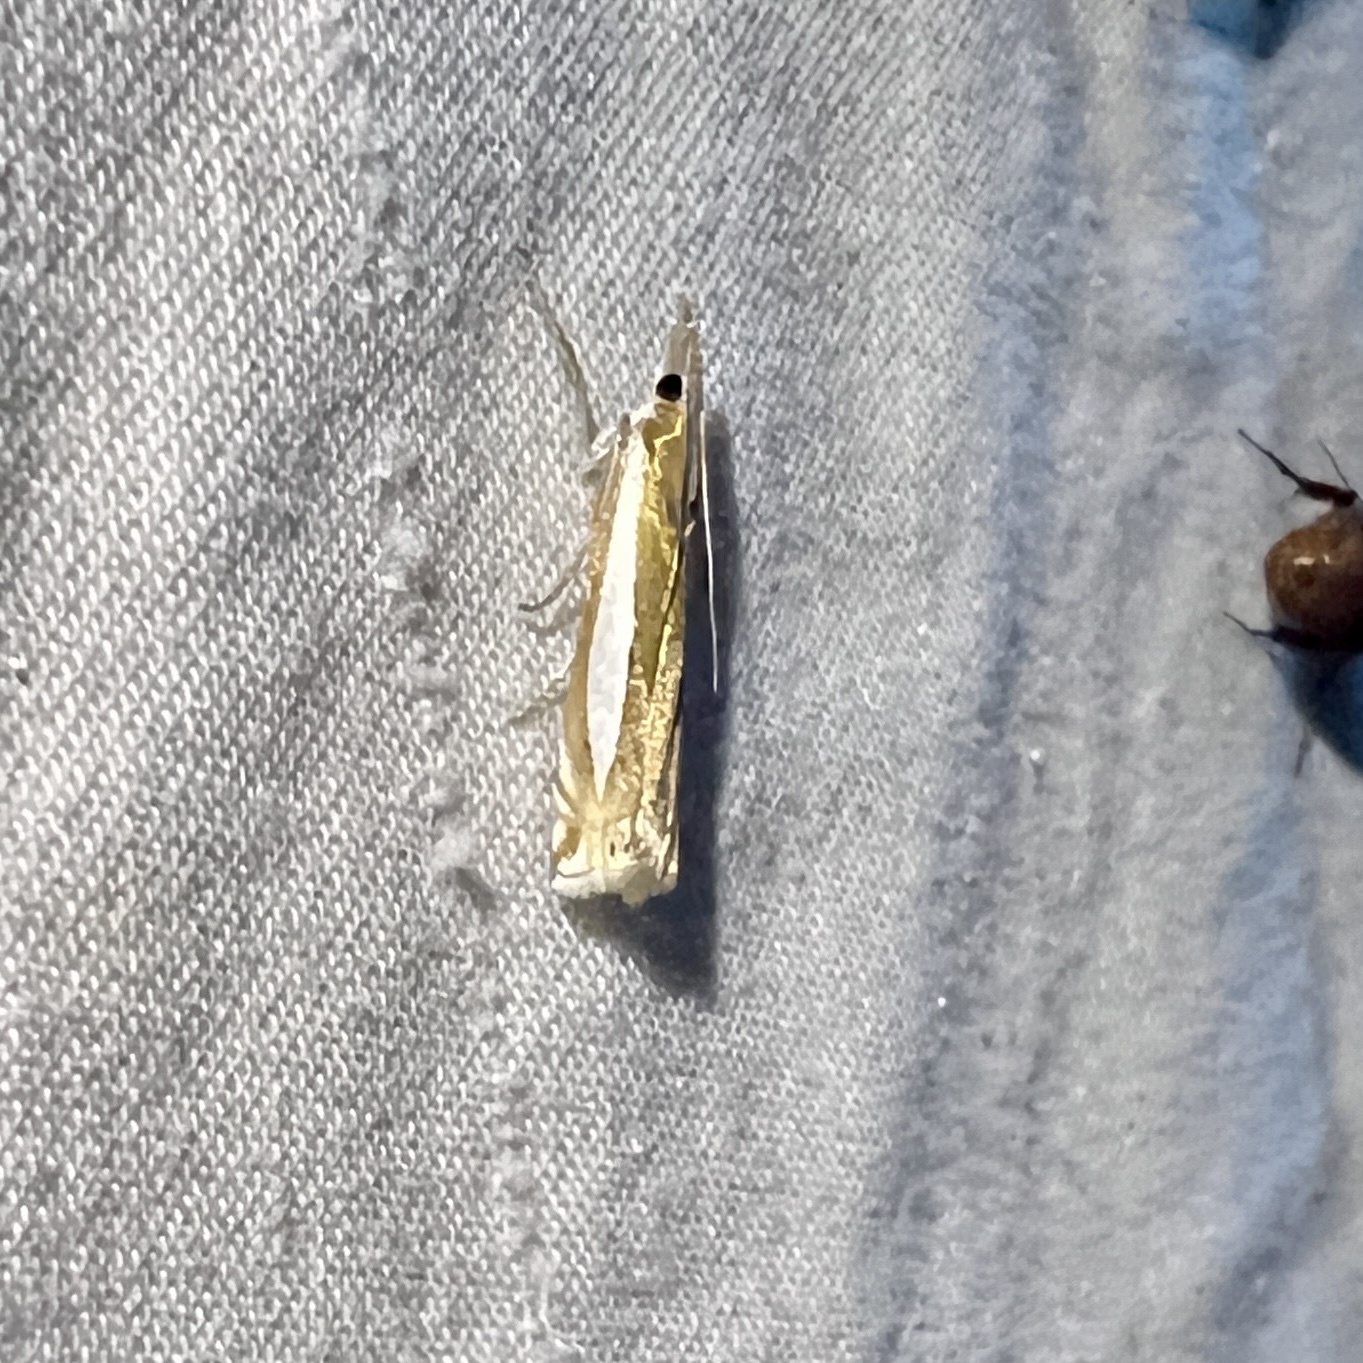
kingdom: Animalia
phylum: Arthropoda
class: Insecta
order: Lepidoptera
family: Crambidae
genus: Crambus
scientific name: Crambus praefectellus
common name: Common grass-veneer
